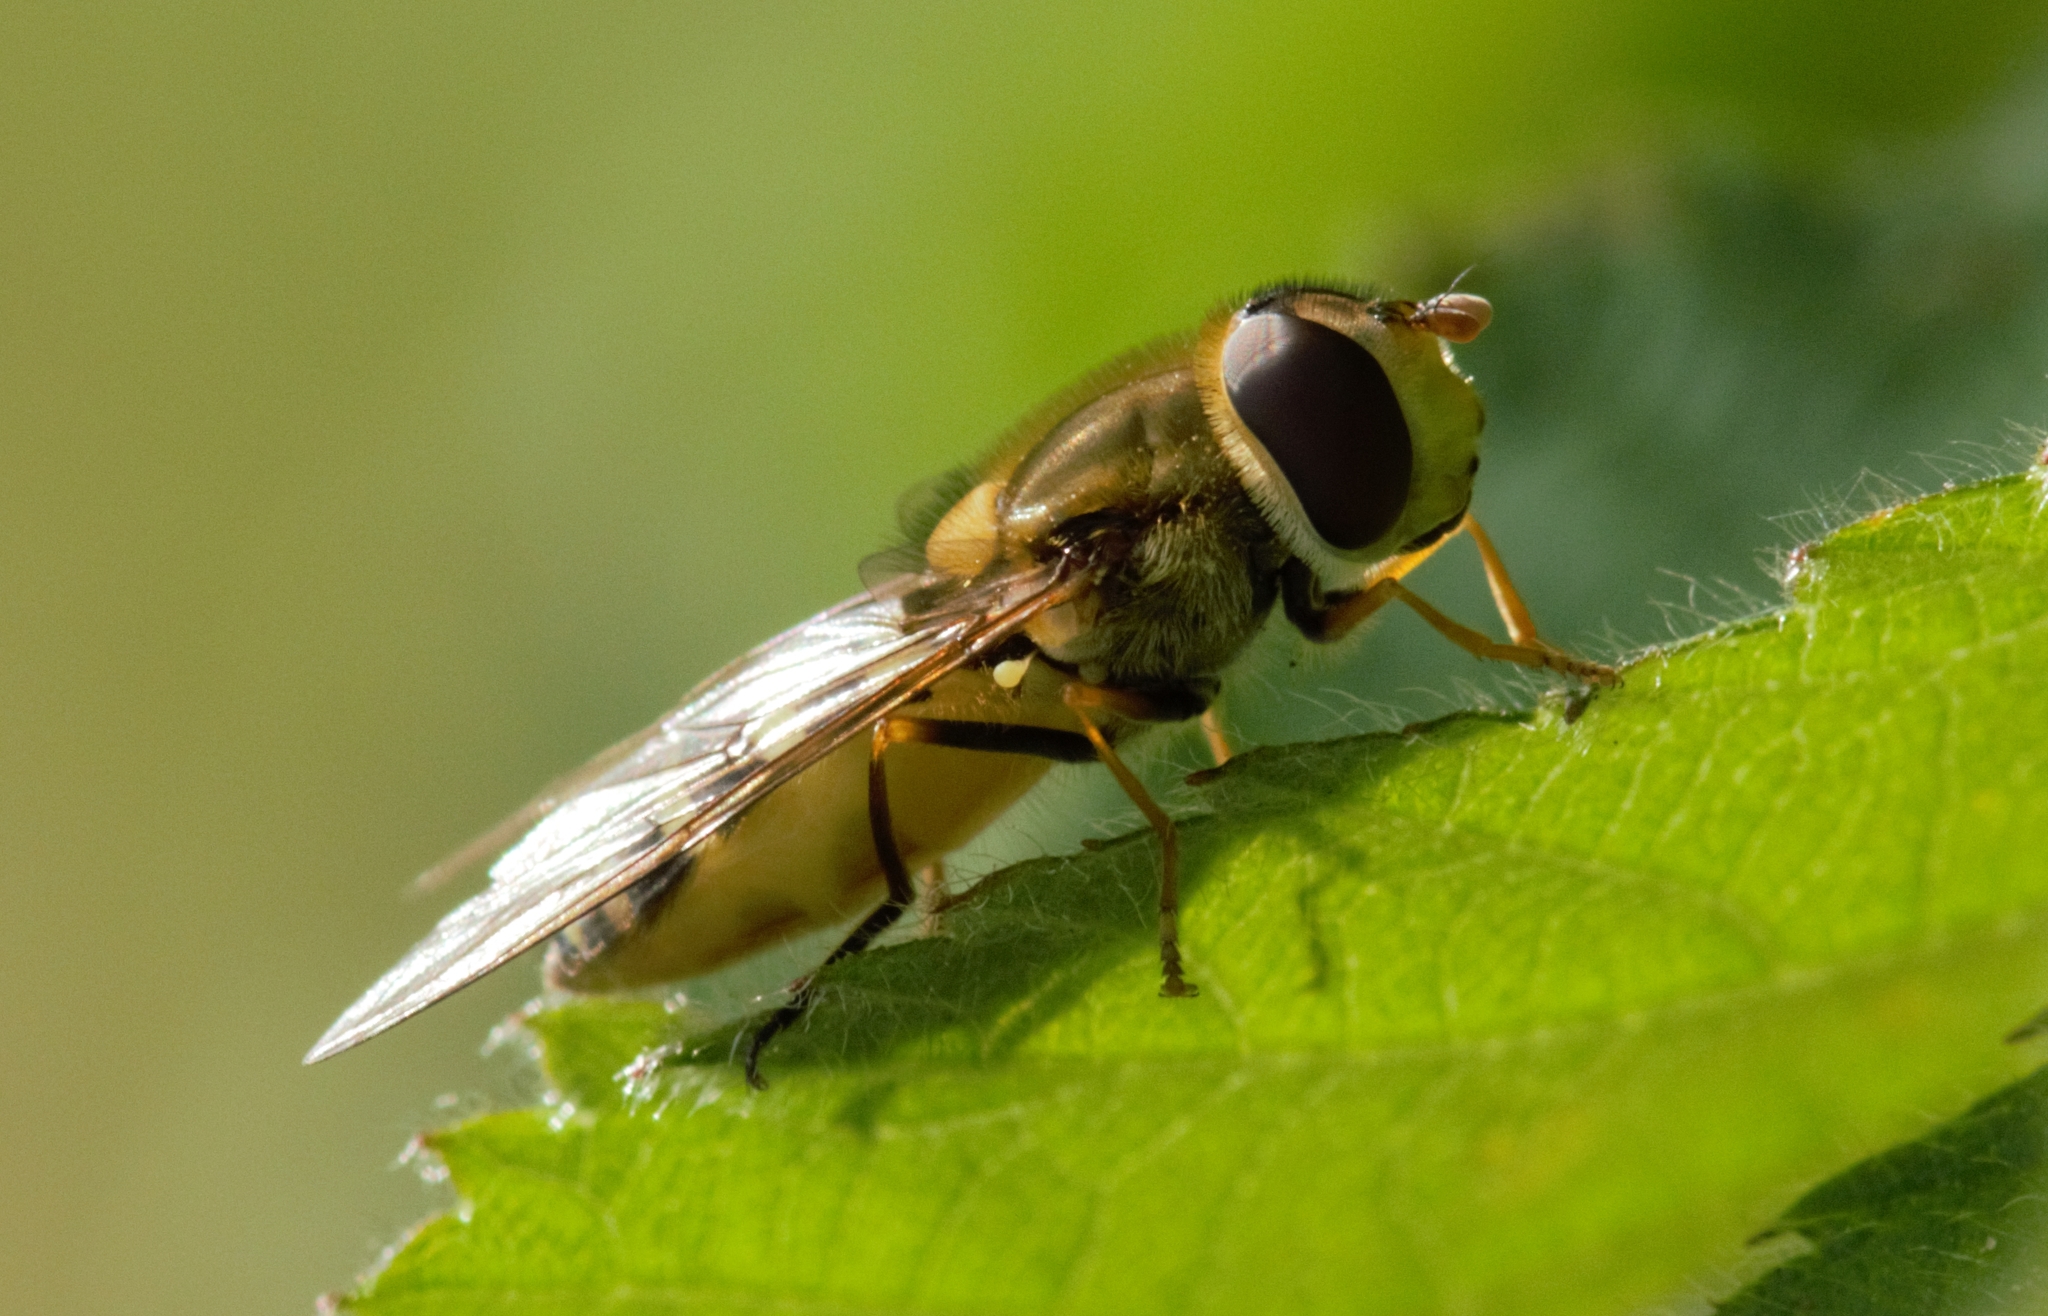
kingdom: Animalia
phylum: Arthropoda
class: Insecta
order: Diptera
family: Syrphidae
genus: Syrphus
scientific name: Syrphus
